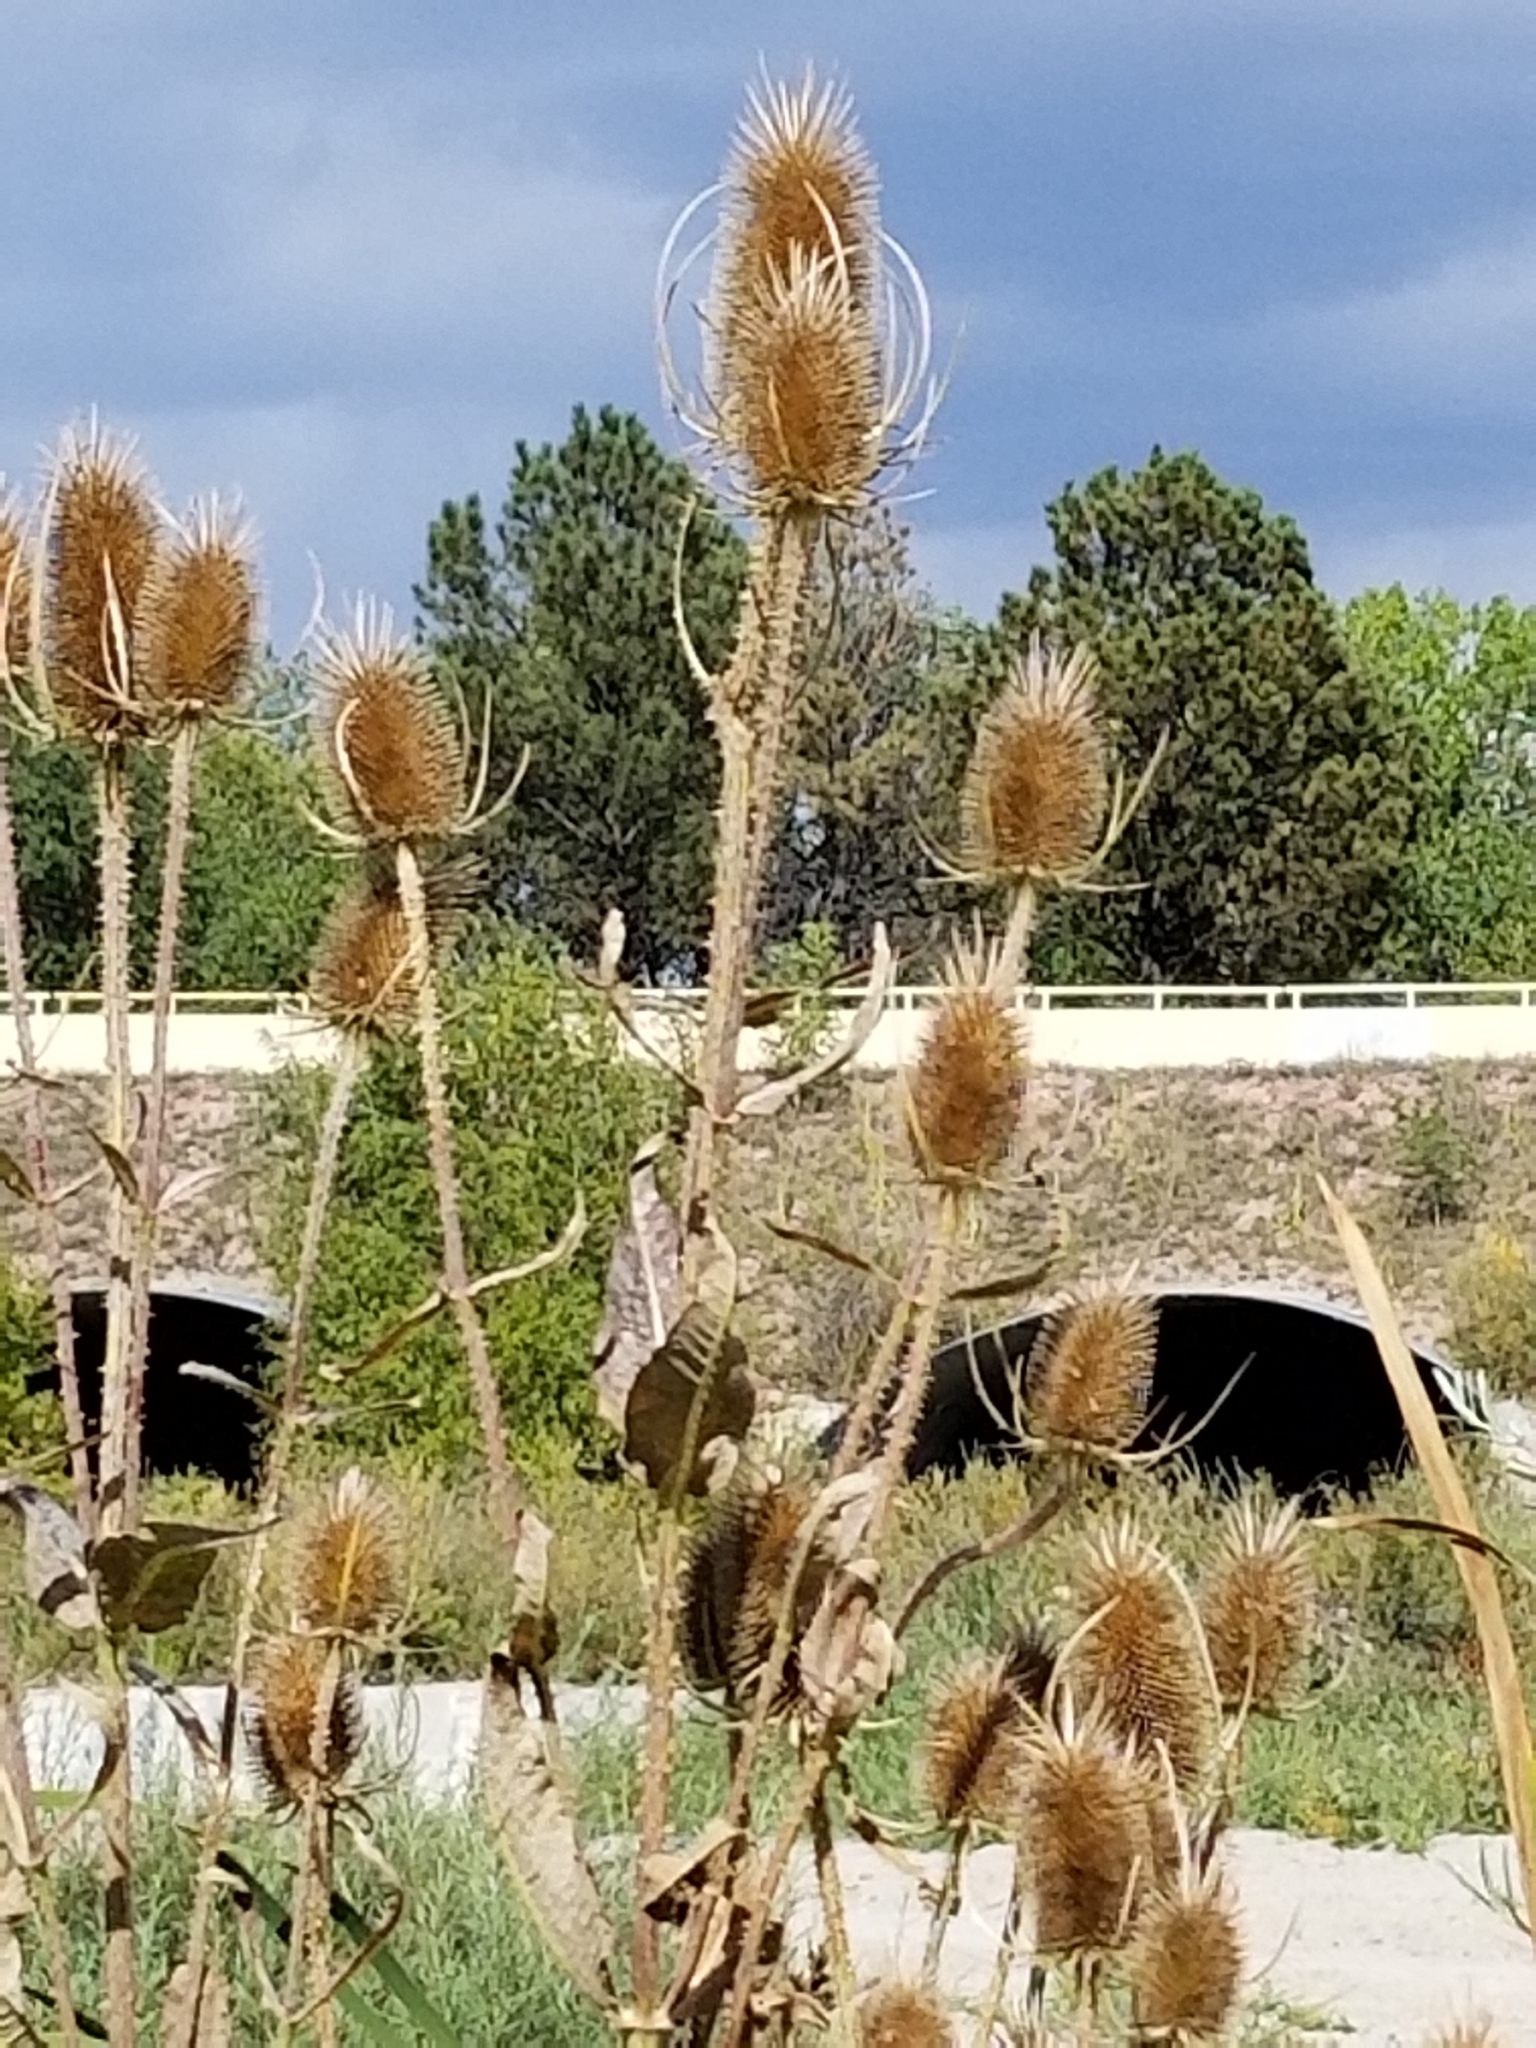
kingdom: Plantae
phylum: Tracheophyta
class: Magnoliopsida
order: Dipsacales
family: Caprifoliaceae
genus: Dipsacus
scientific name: Dipsacus fullonum
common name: Teasel
